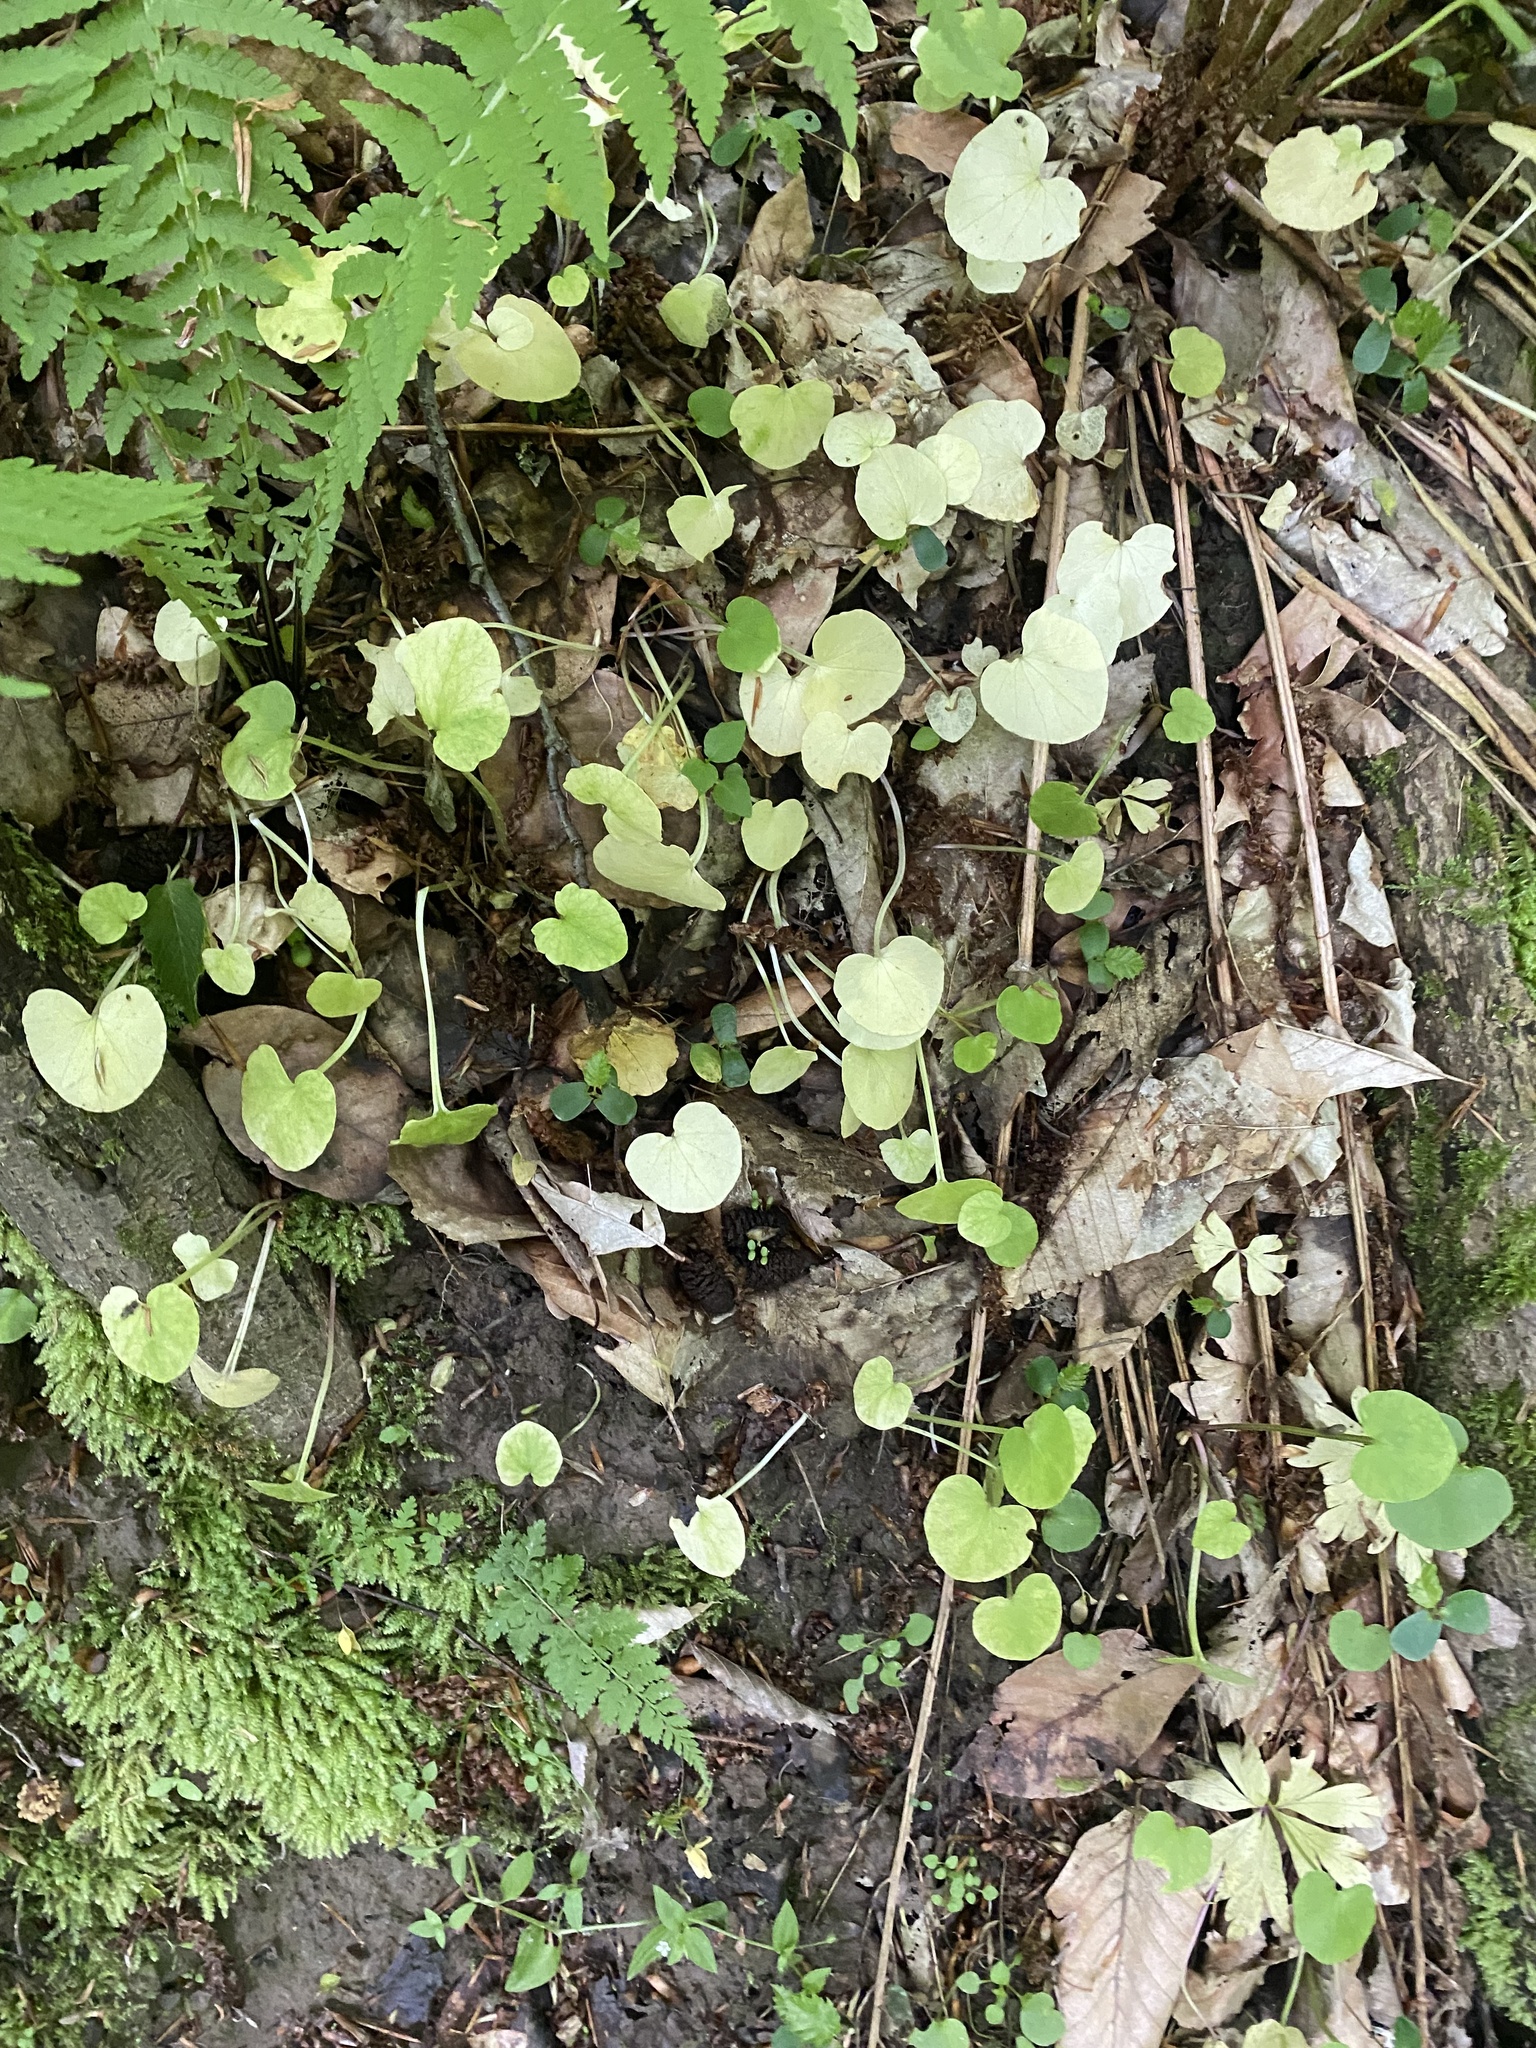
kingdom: Plantae
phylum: Tracheophyta
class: Magnoliopsida
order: Ranunculales
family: Ranunculaceae
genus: Ficaria
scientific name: Ficaria verna
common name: Lesser celandine
